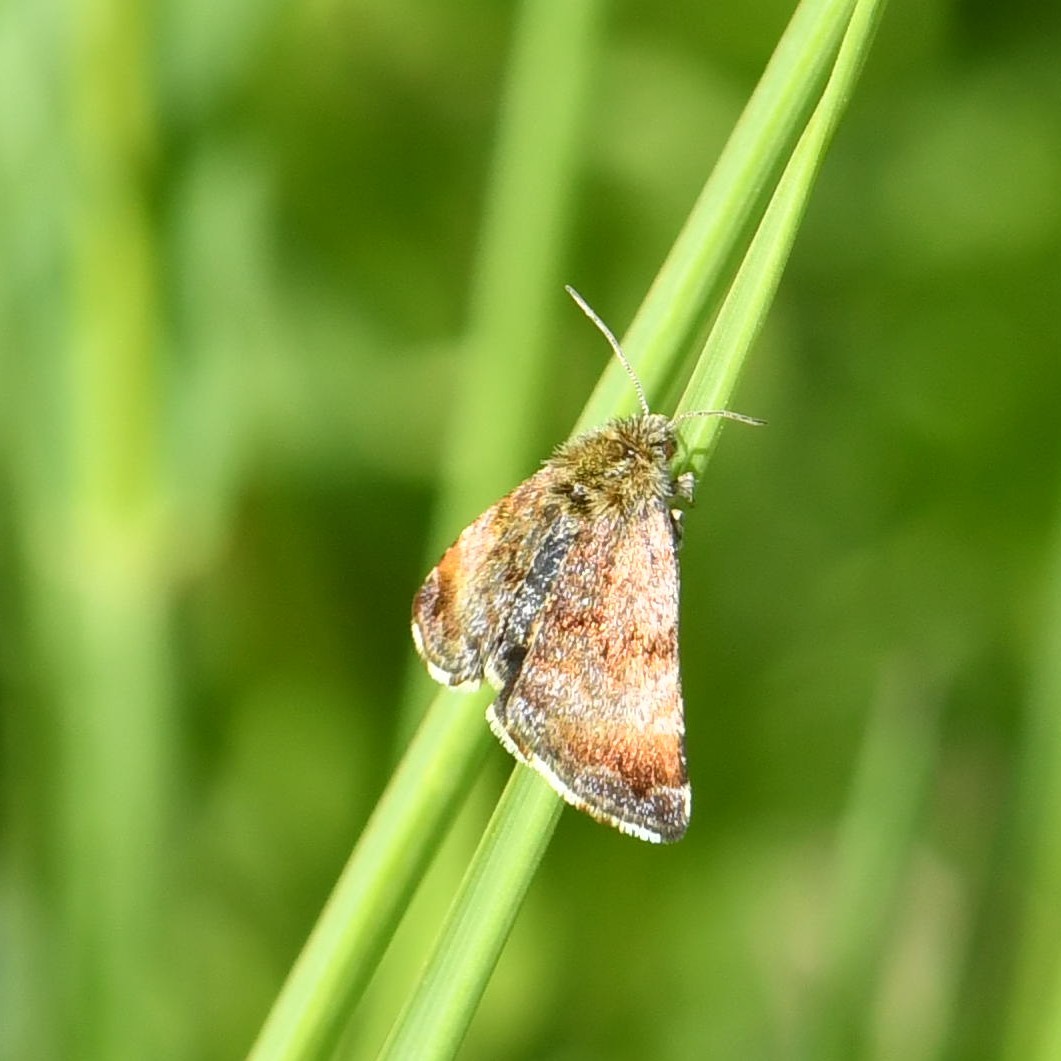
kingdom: Animalia
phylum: Arthropoda
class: Insecta
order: Lepidoptera
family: Noctuidae
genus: Panemeria
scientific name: Panemeria tenebrata
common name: Small yellow underwing
